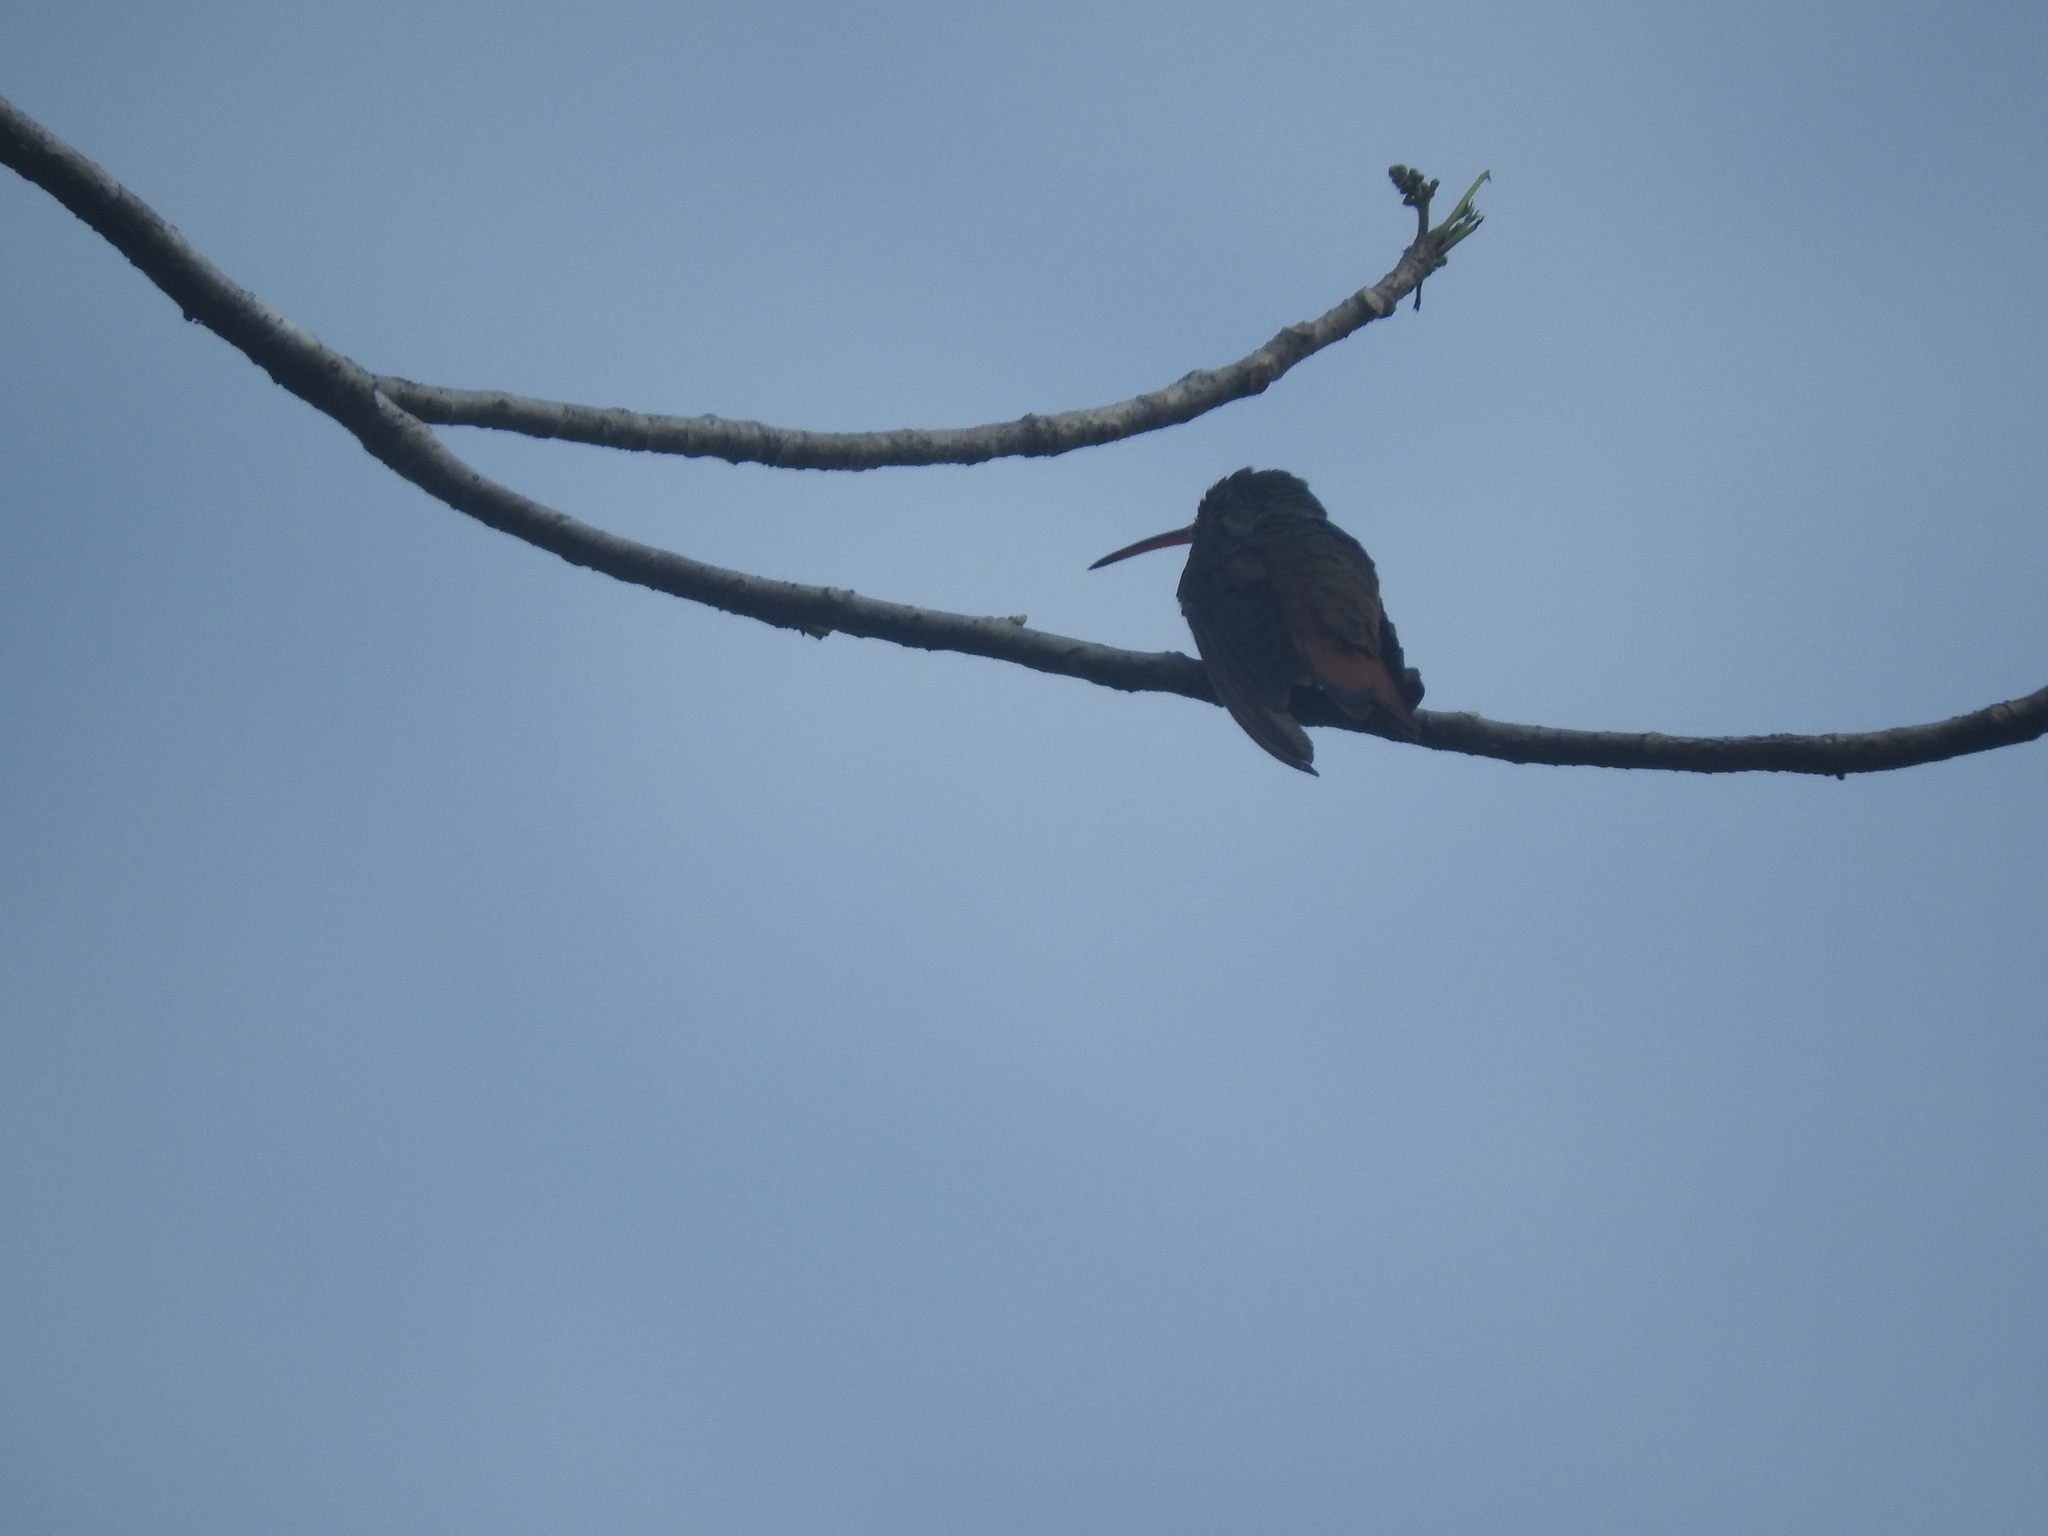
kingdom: Animalia
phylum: Chordata
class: Aves
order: Apodiformes
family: Trochilidae
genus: Amazilia
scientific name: Amazilia rutila
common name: Cinnamon hummingbird
